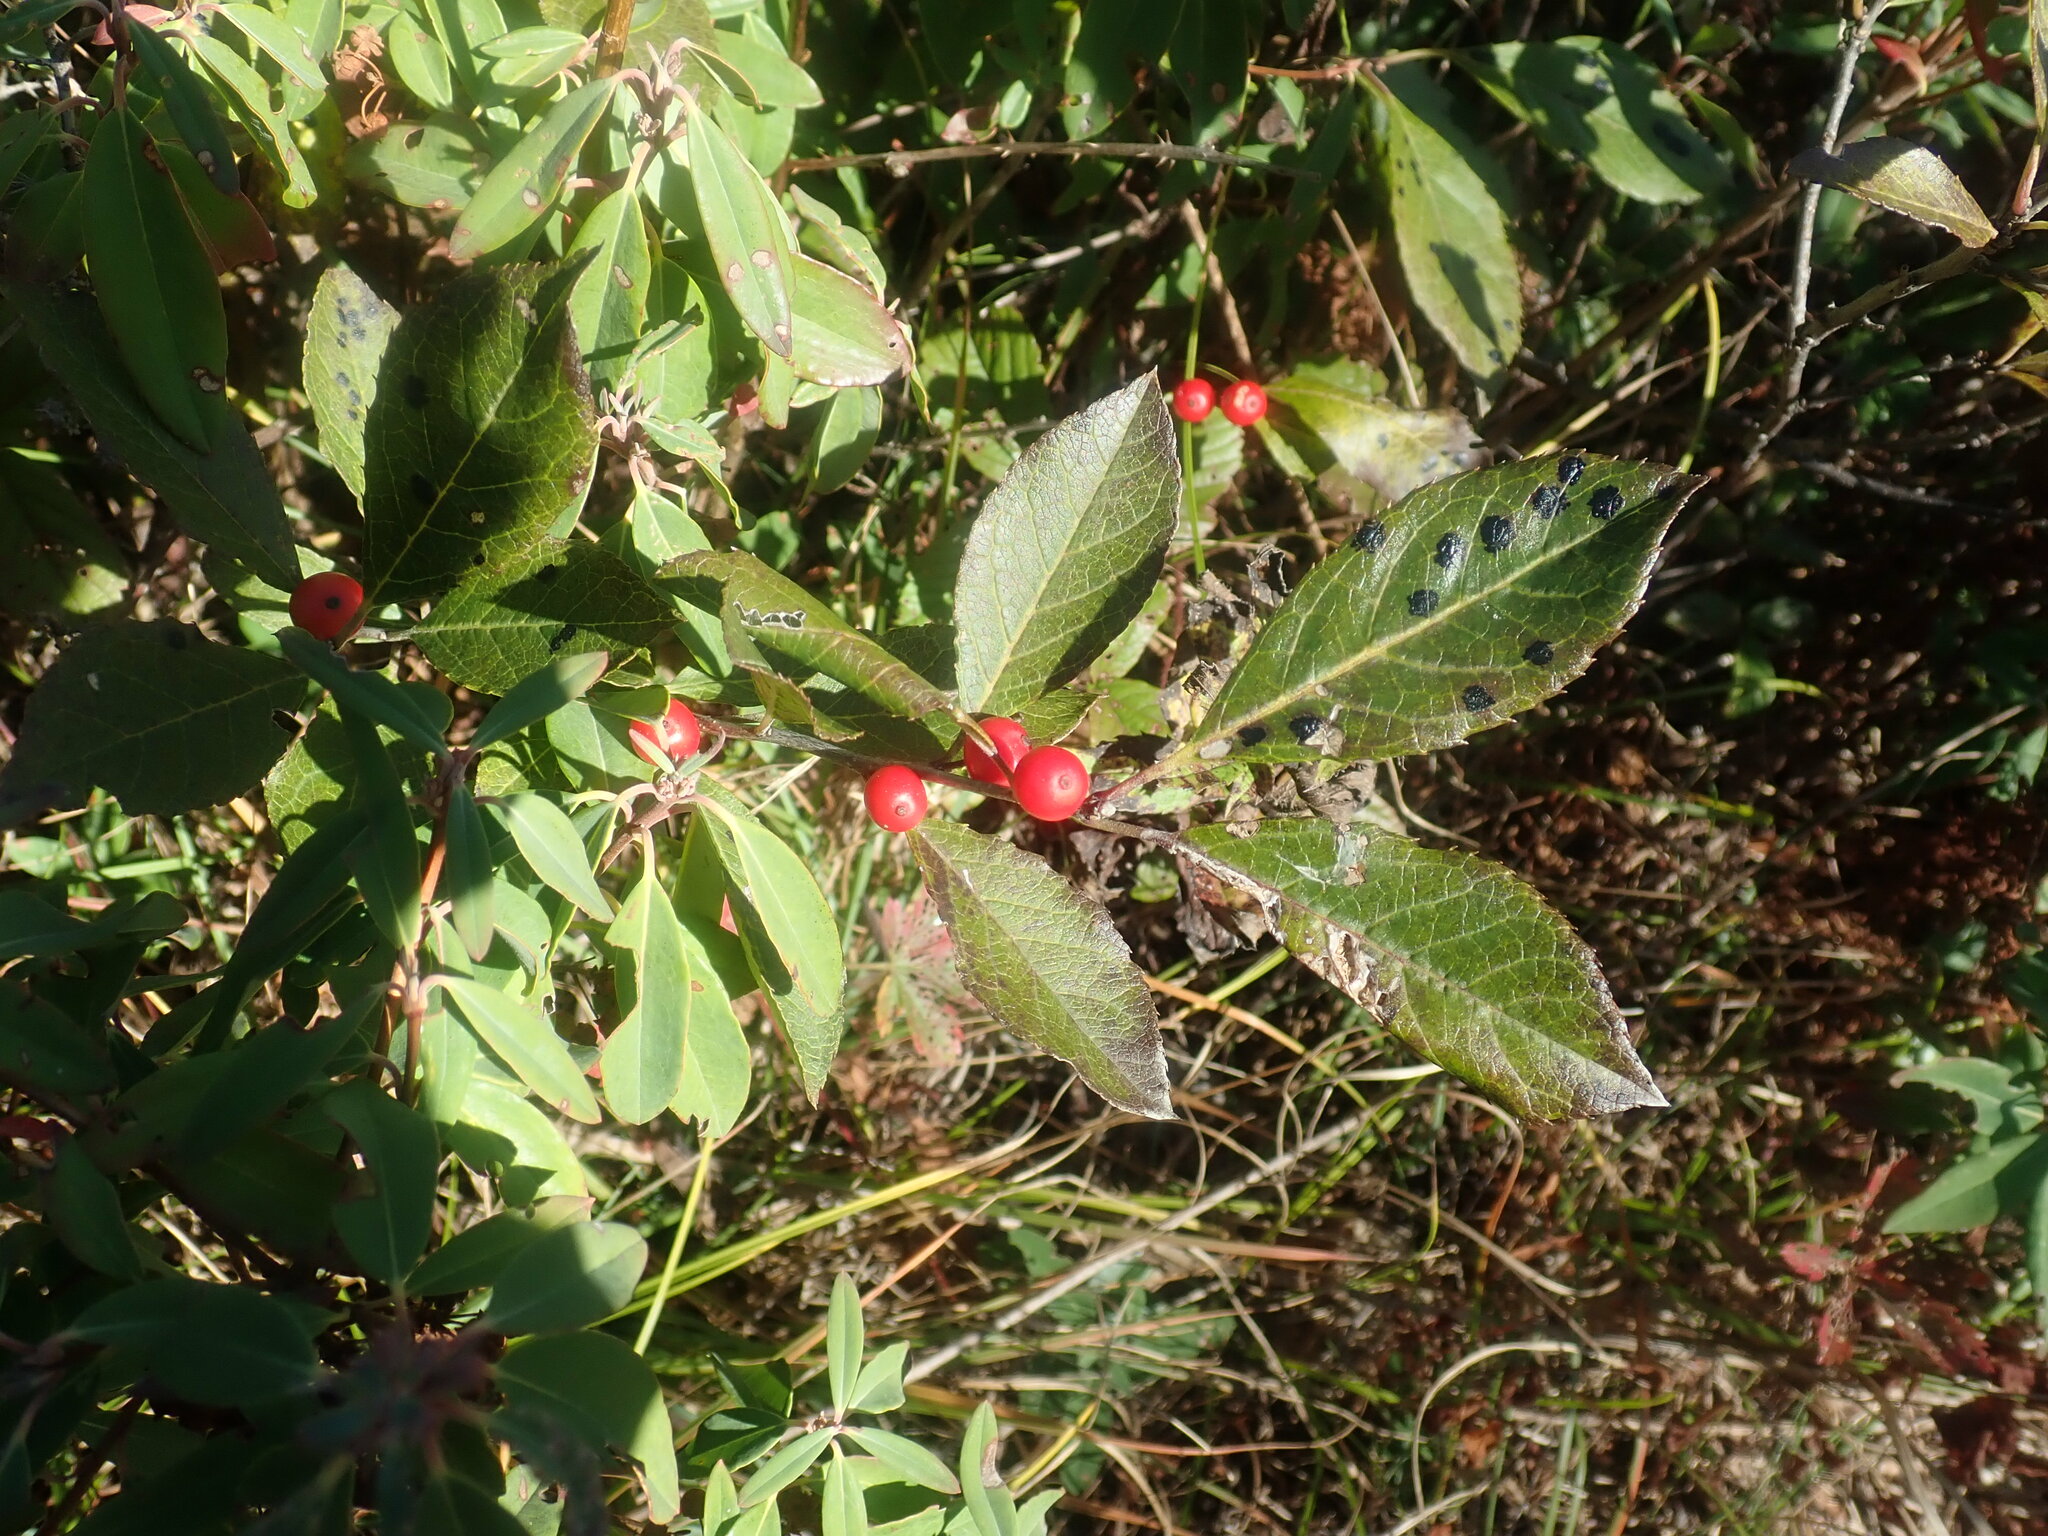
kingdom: Plantae
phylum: Tracheophyta
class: Magnoliopsida
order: Aquifoliales
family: Aquifoliaceae
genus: Ilex
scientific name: Ilex verticillata
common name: Virginia winterberry
